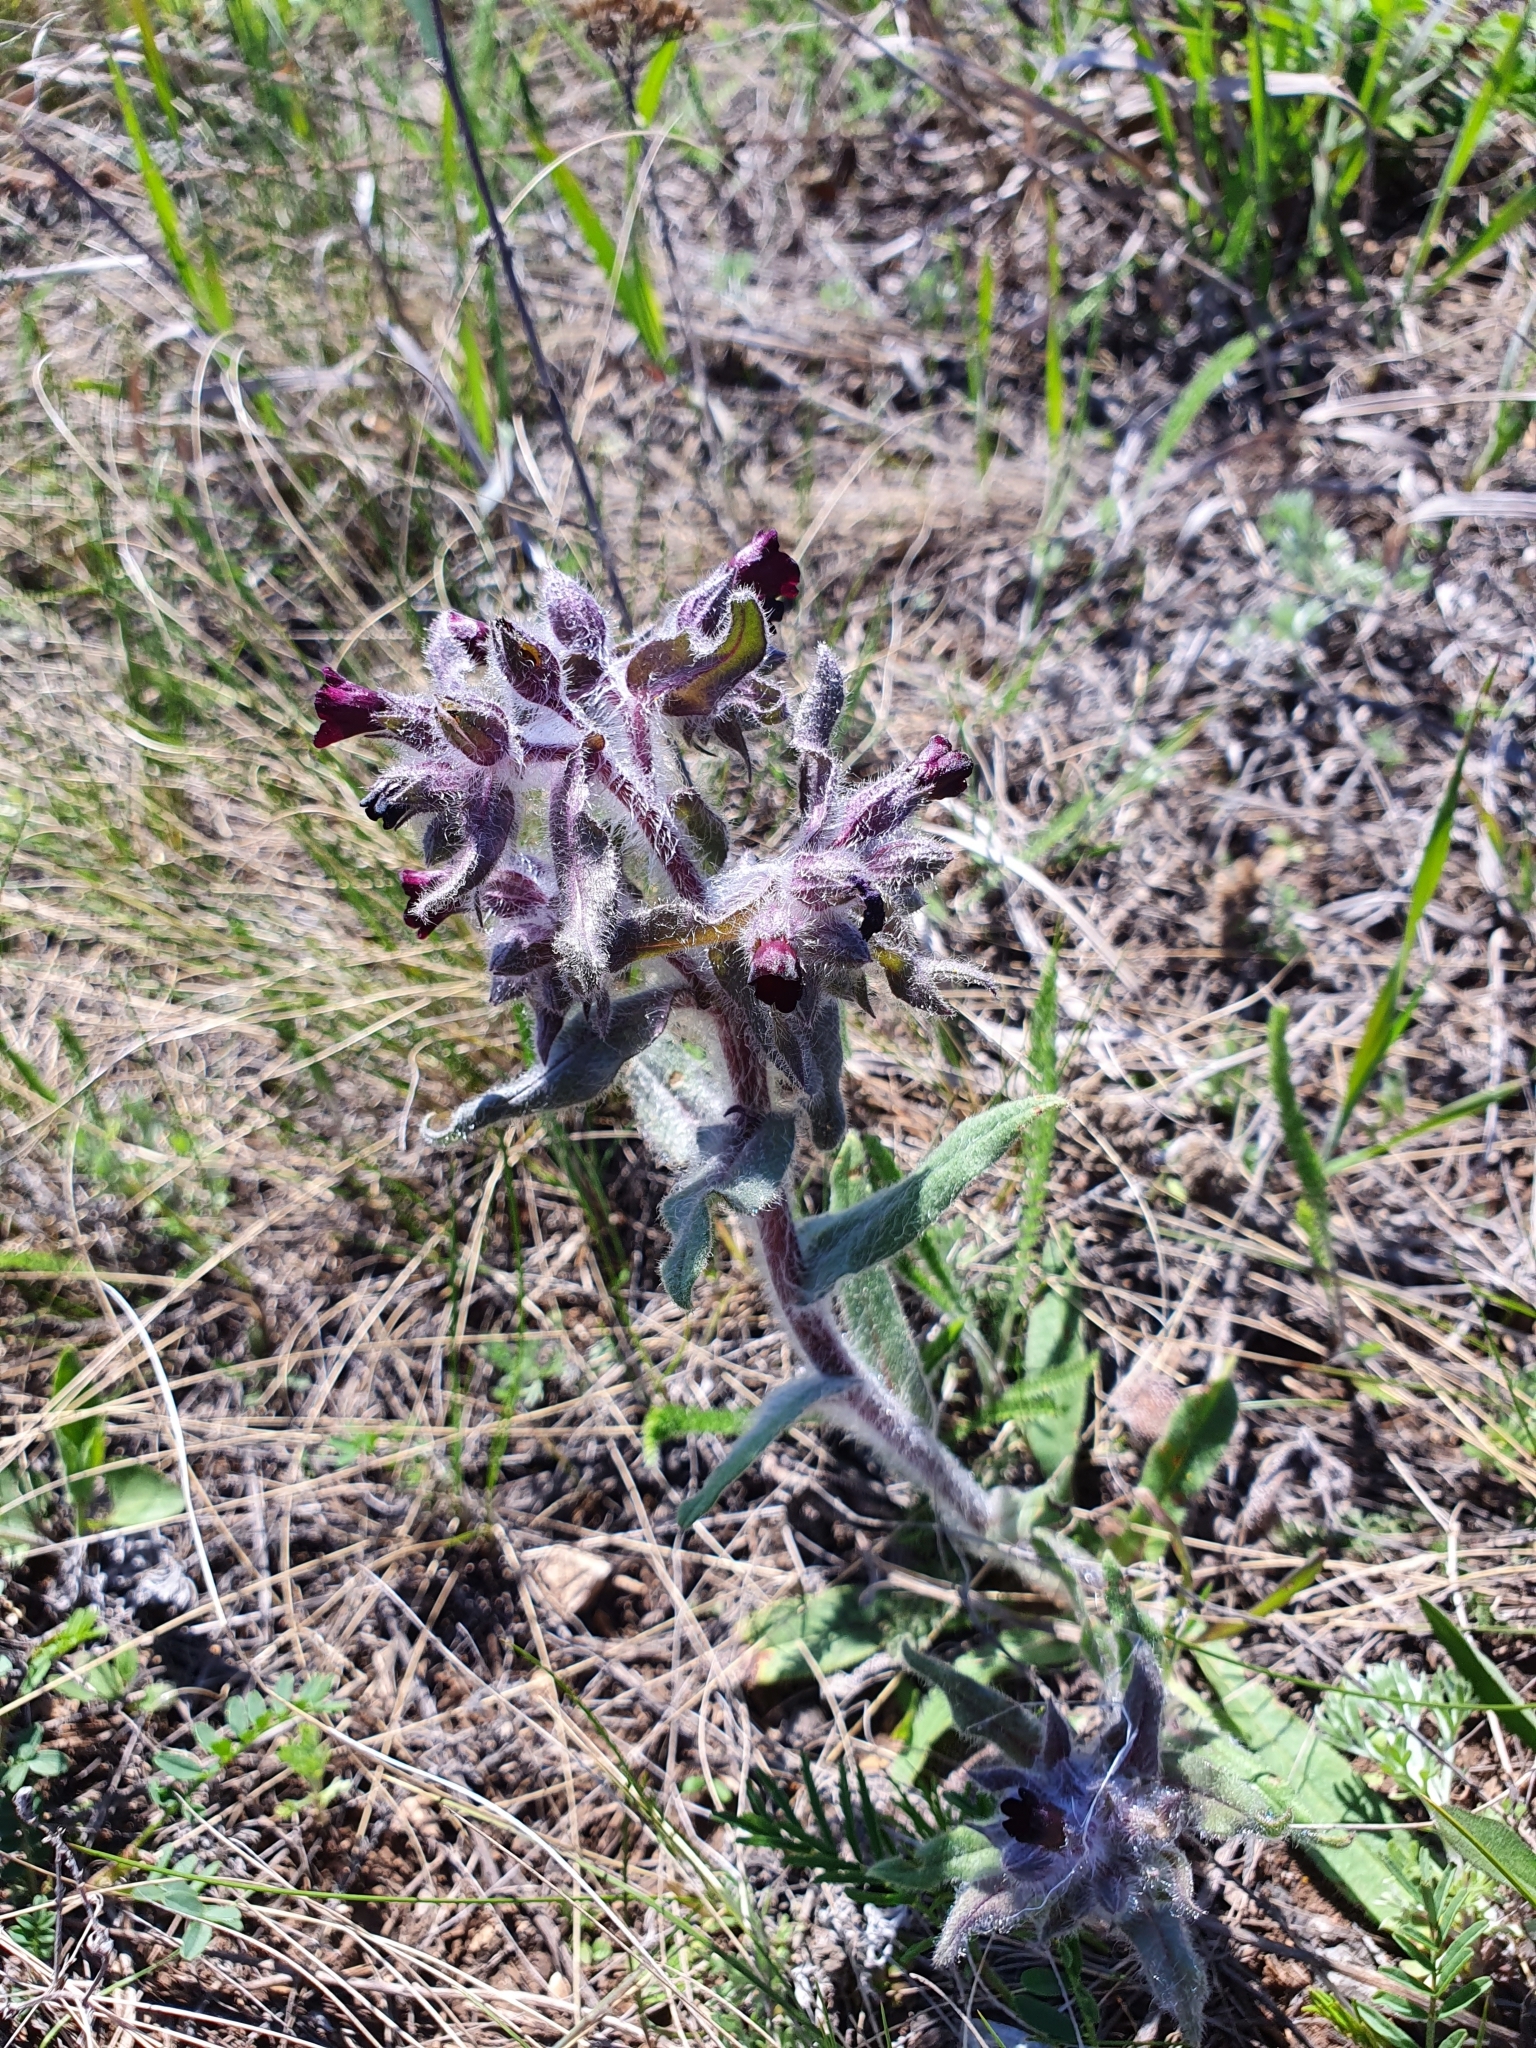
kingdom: Plantae
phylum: Tracheophyta
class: Magnoliopsida
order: Boraginales
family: Boraginaceae
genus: Nonea
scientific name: Nonea pulla
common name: Brown nonea
